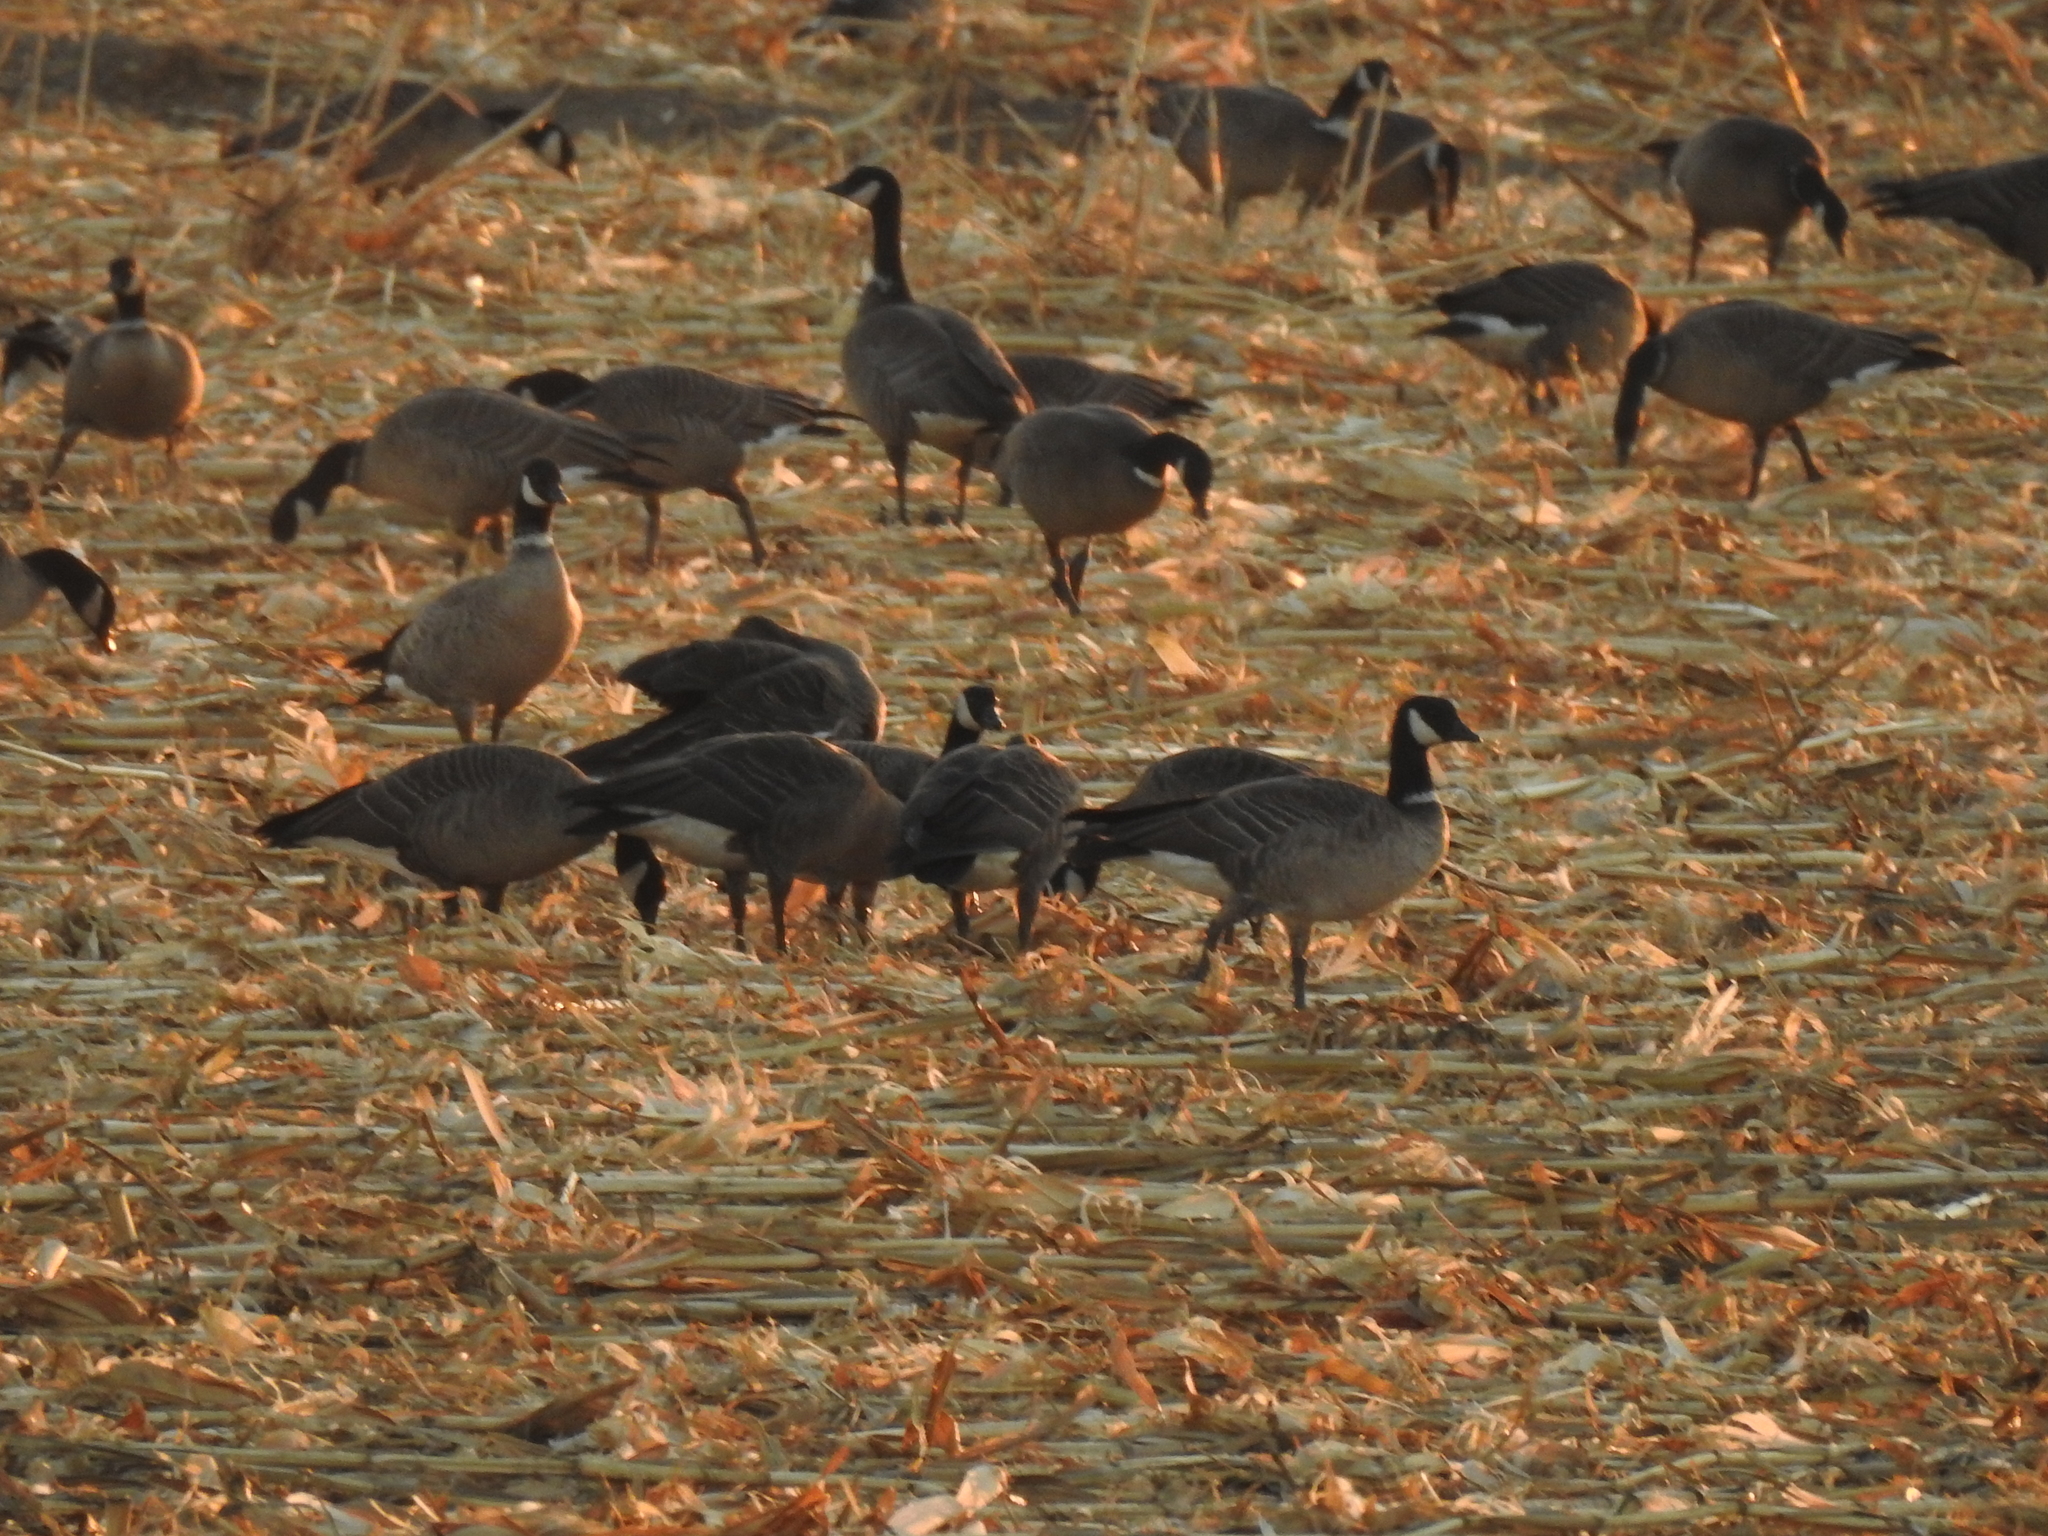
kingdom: Animalia
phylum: Chordata
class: Aves
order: Anseriformes
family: Anatidae
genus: Branta
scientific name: Branta hutchinsii
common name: Cackling goose
